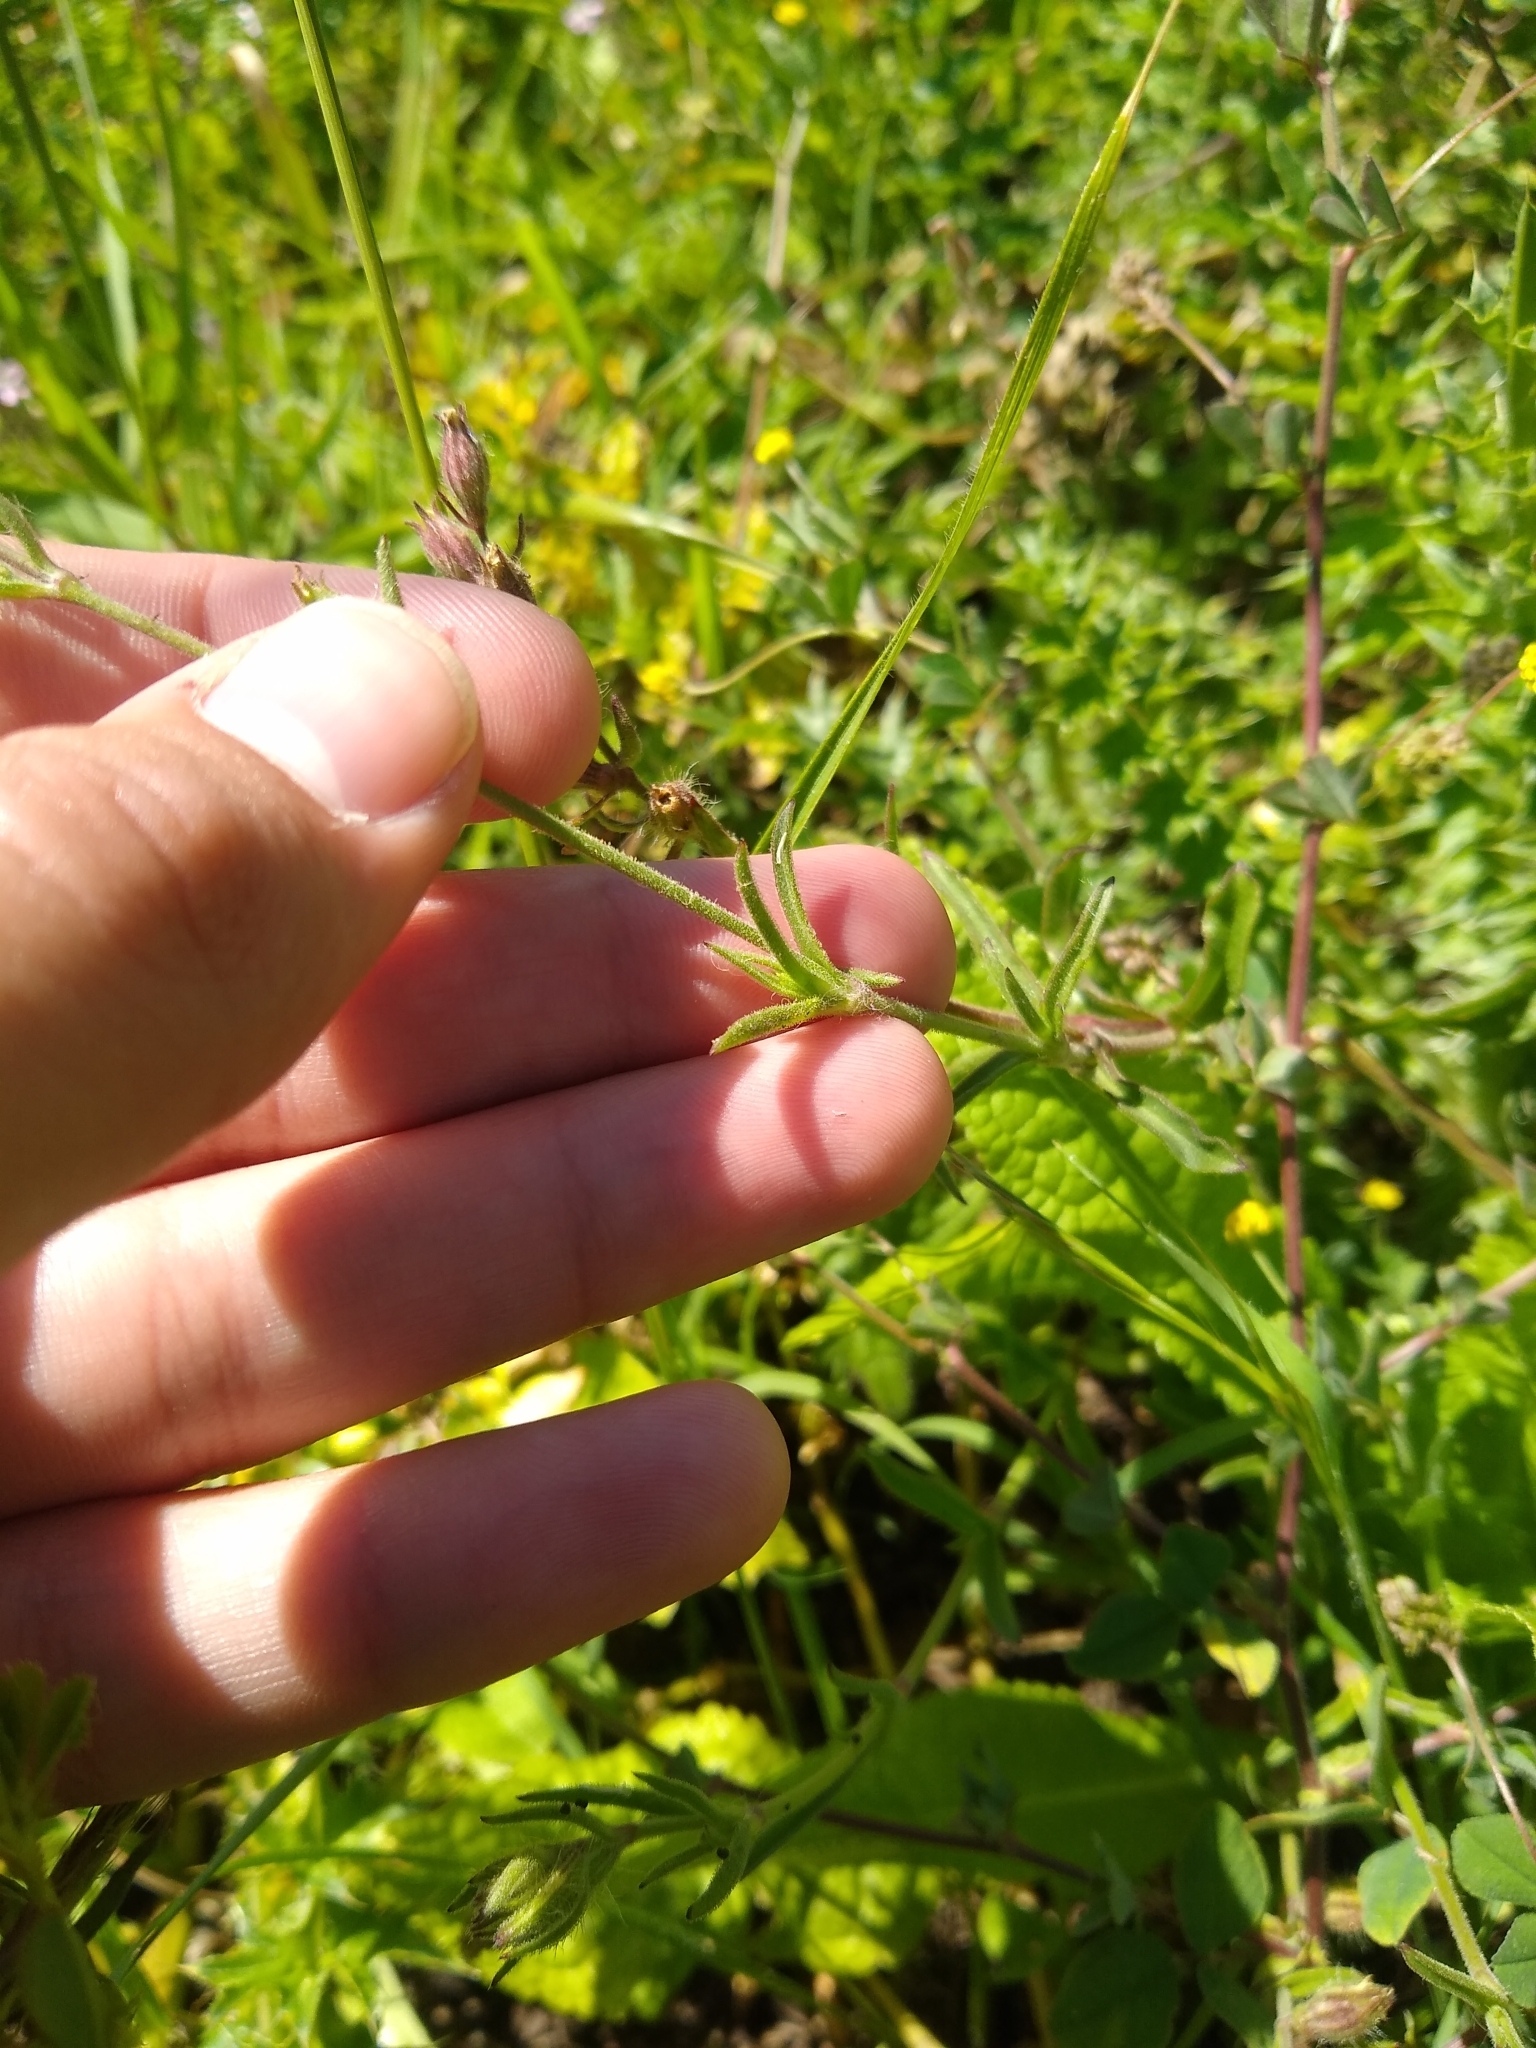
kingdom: Plantae
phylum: Tracheophyta
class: Magnoliopsida
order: Caryophyllales
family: Caryophyllaceae
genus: Silene
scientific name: Silene gallica
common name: Small-flowered catchfly
